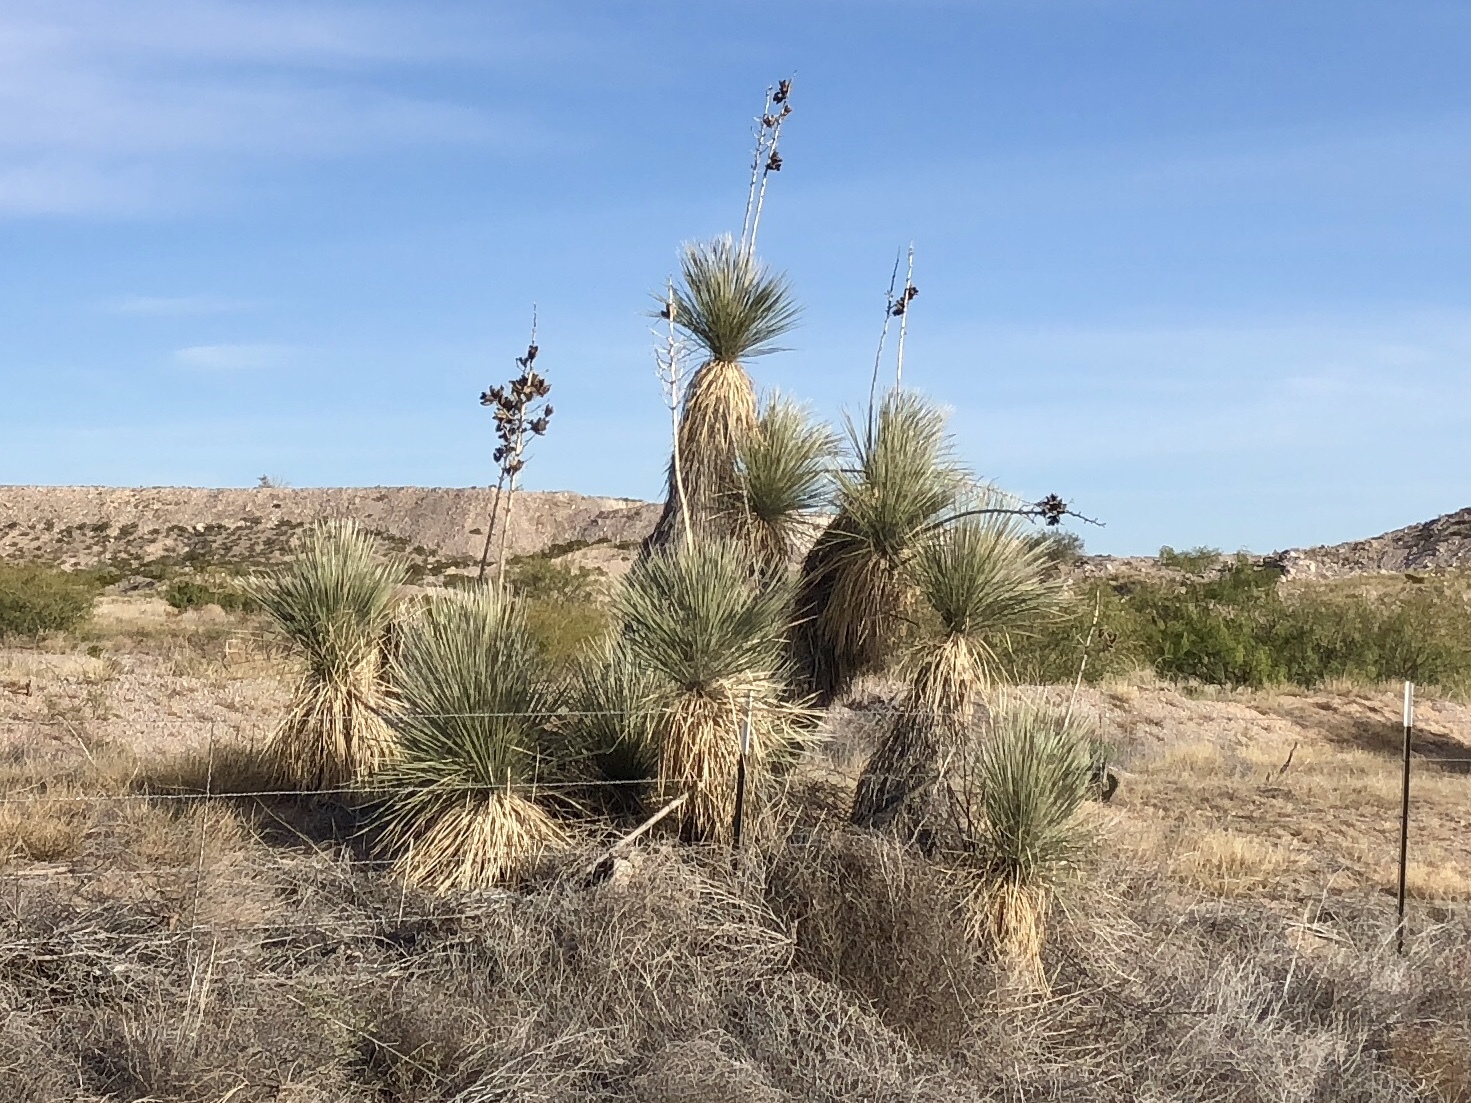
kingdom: Plantae
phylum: Tracheophyta
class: Liliopsida
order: Asparagales
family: Asparagaceae
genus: Yucca
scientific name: Yucca elata
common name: Palmella
